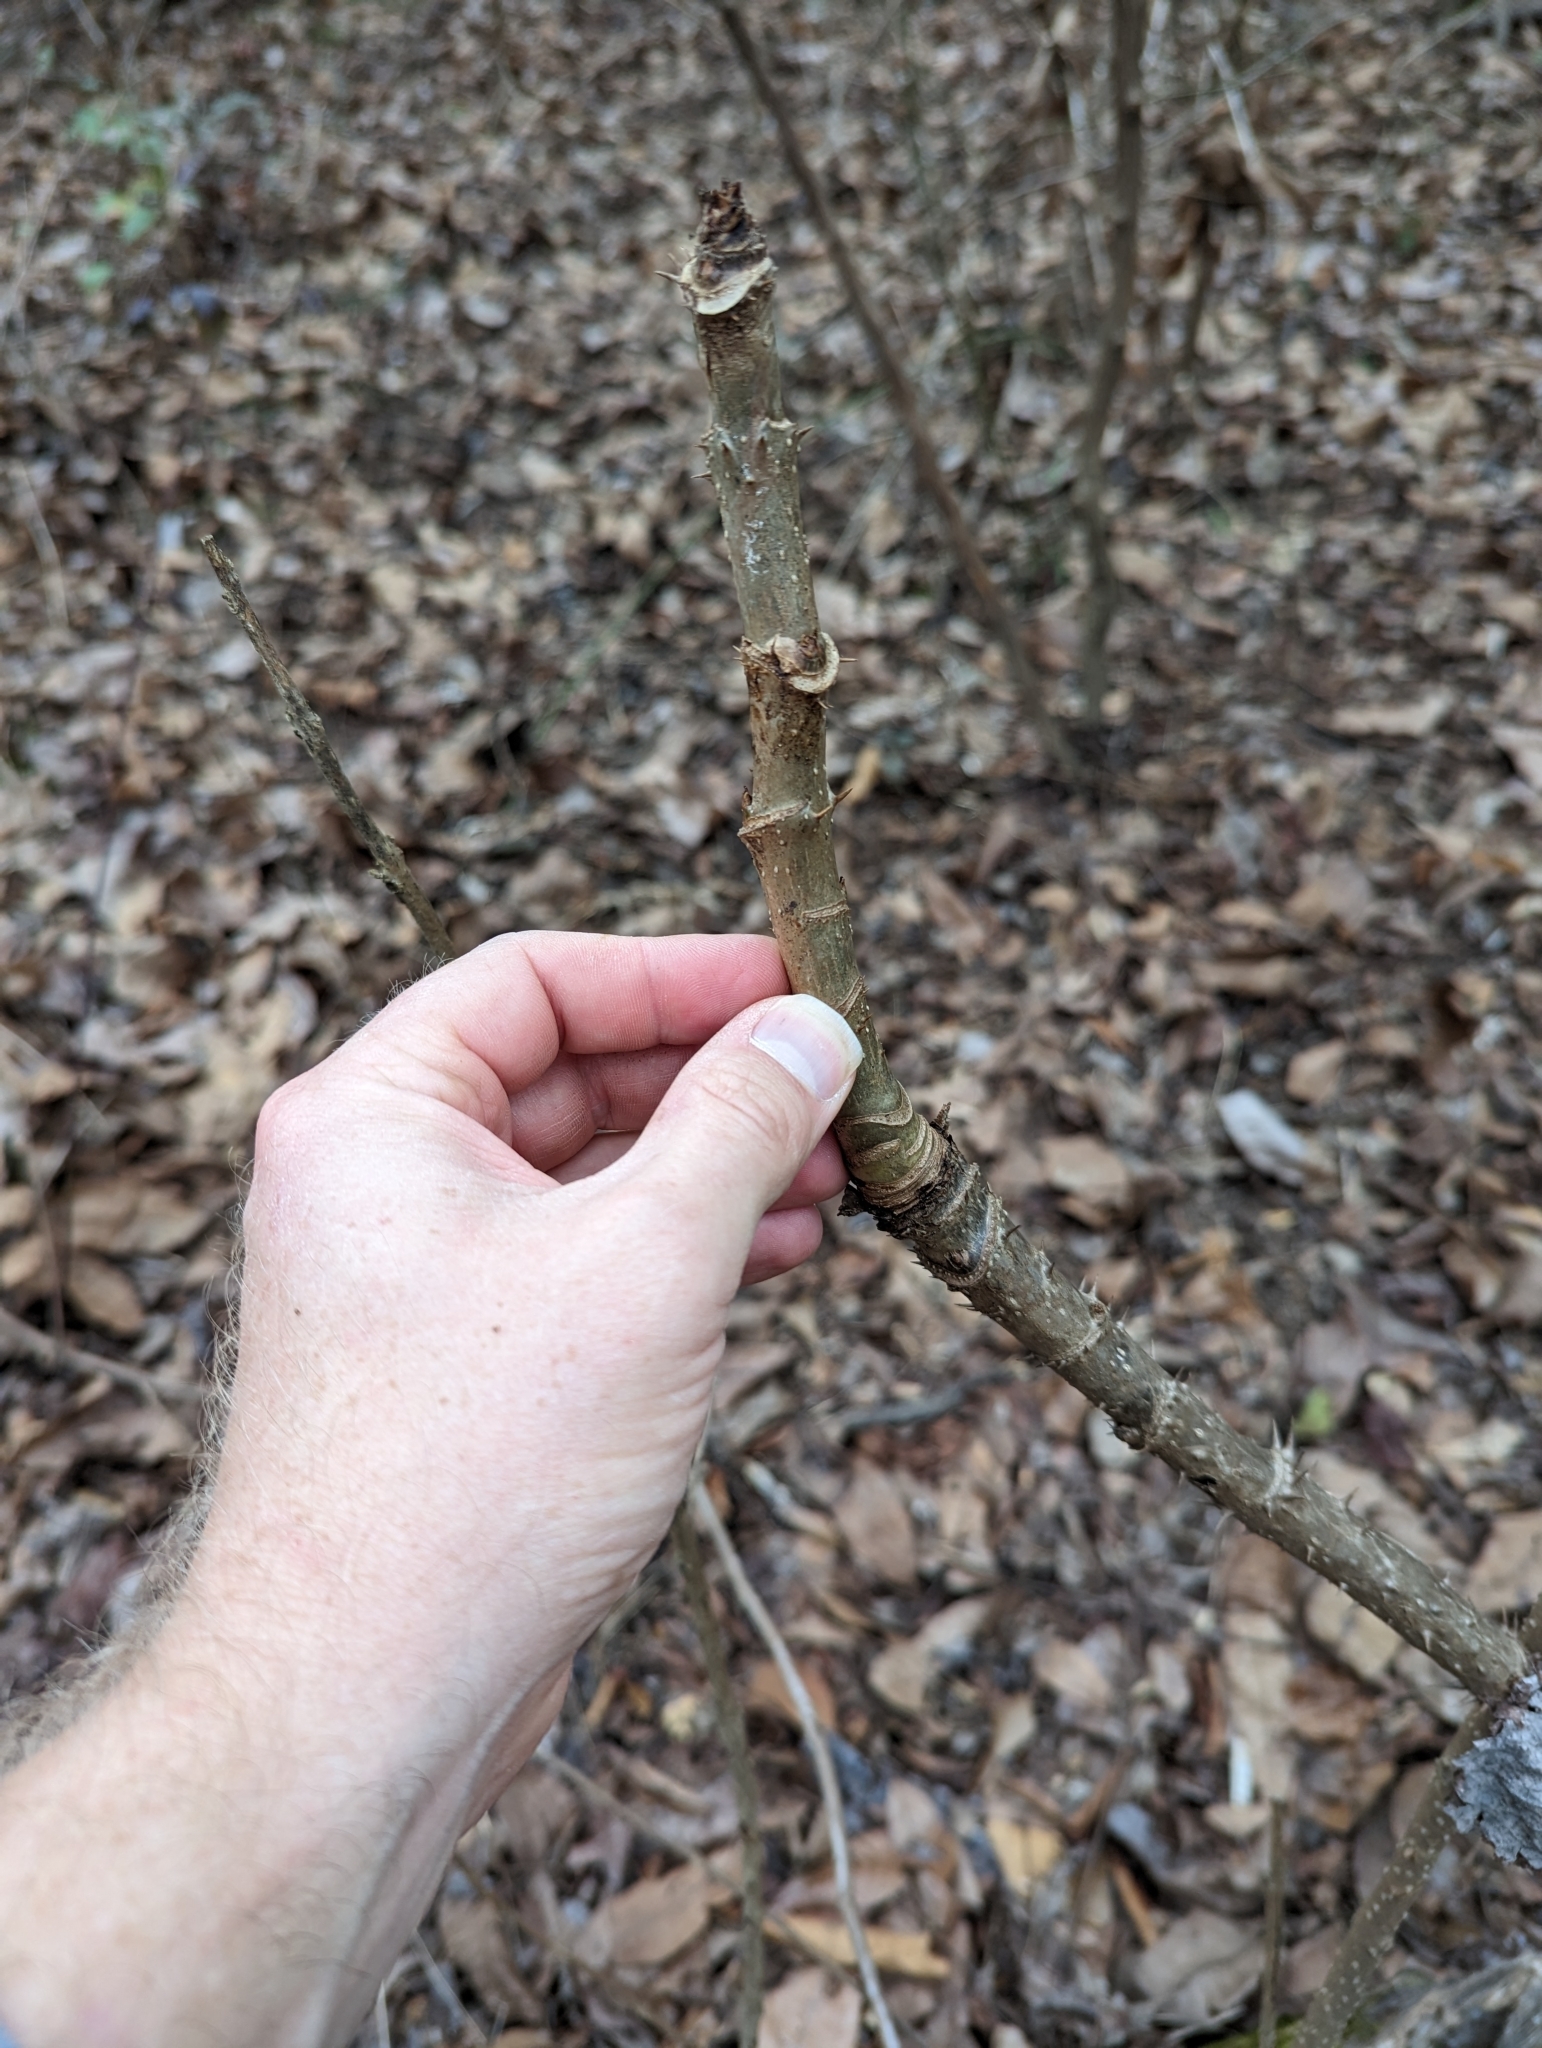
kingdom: Plantae
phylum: Tracheophyta
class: Magnoliopsida
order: Apiales
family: Araliaceae
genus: Aralia
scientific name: Aralia spinosa
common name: Hercules'-club
